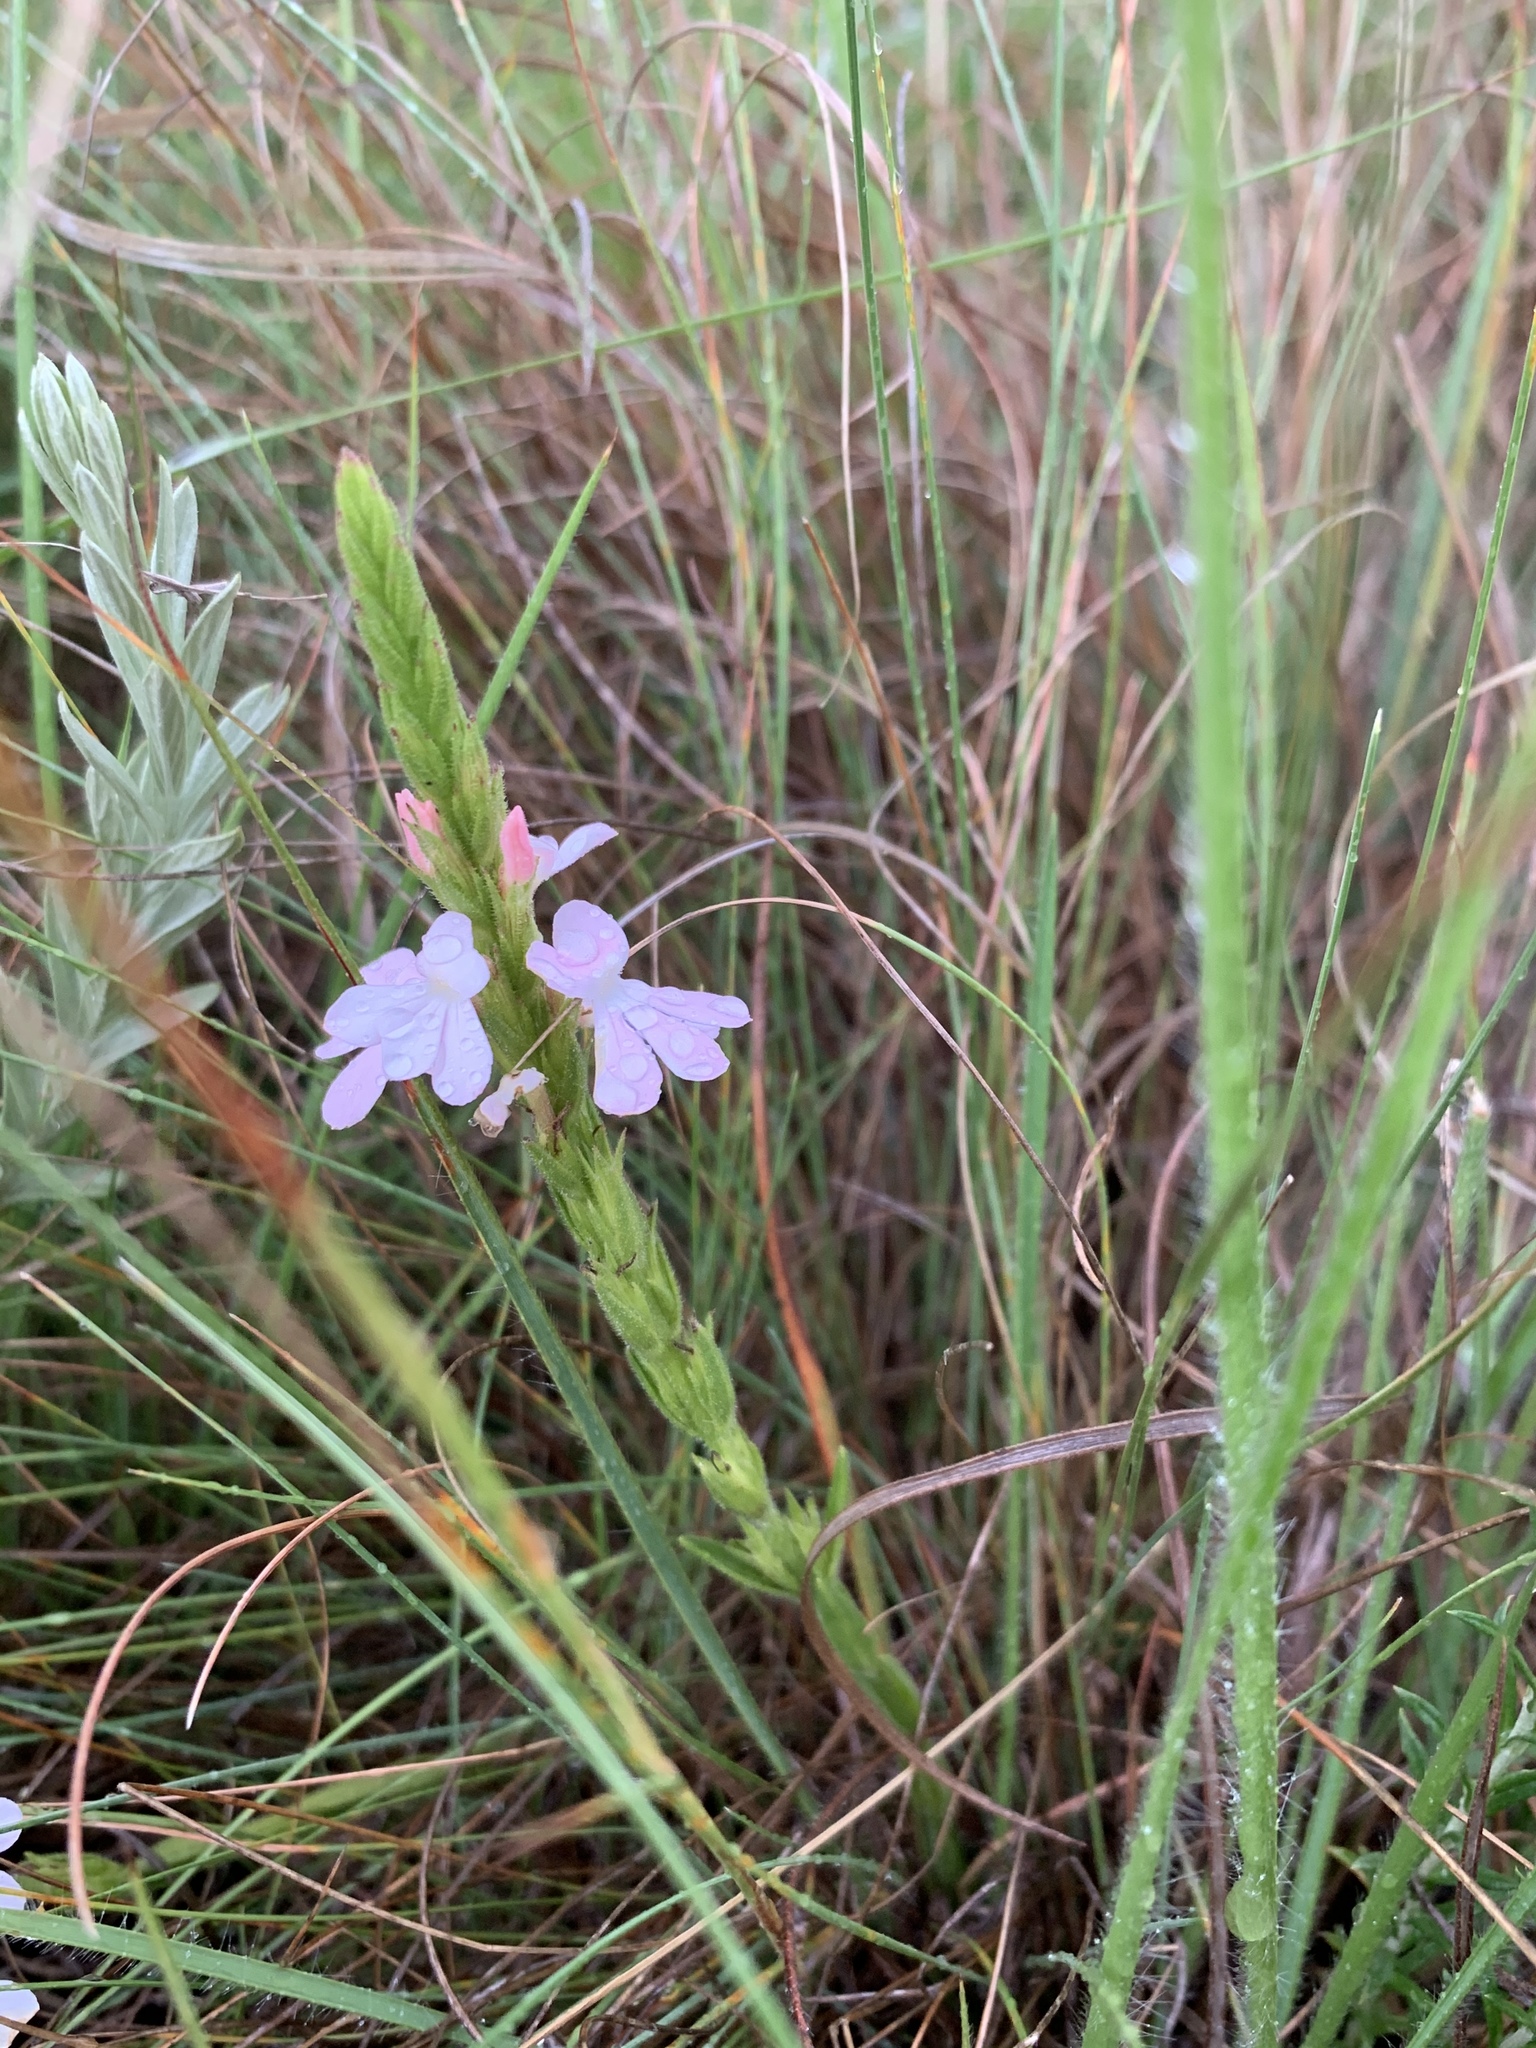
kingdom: Plantae
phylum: Tracheophyta
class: Magnoliopsida
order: Lamiales
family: Orobanchaceae
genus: Striga
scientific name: Striga bilabiata
